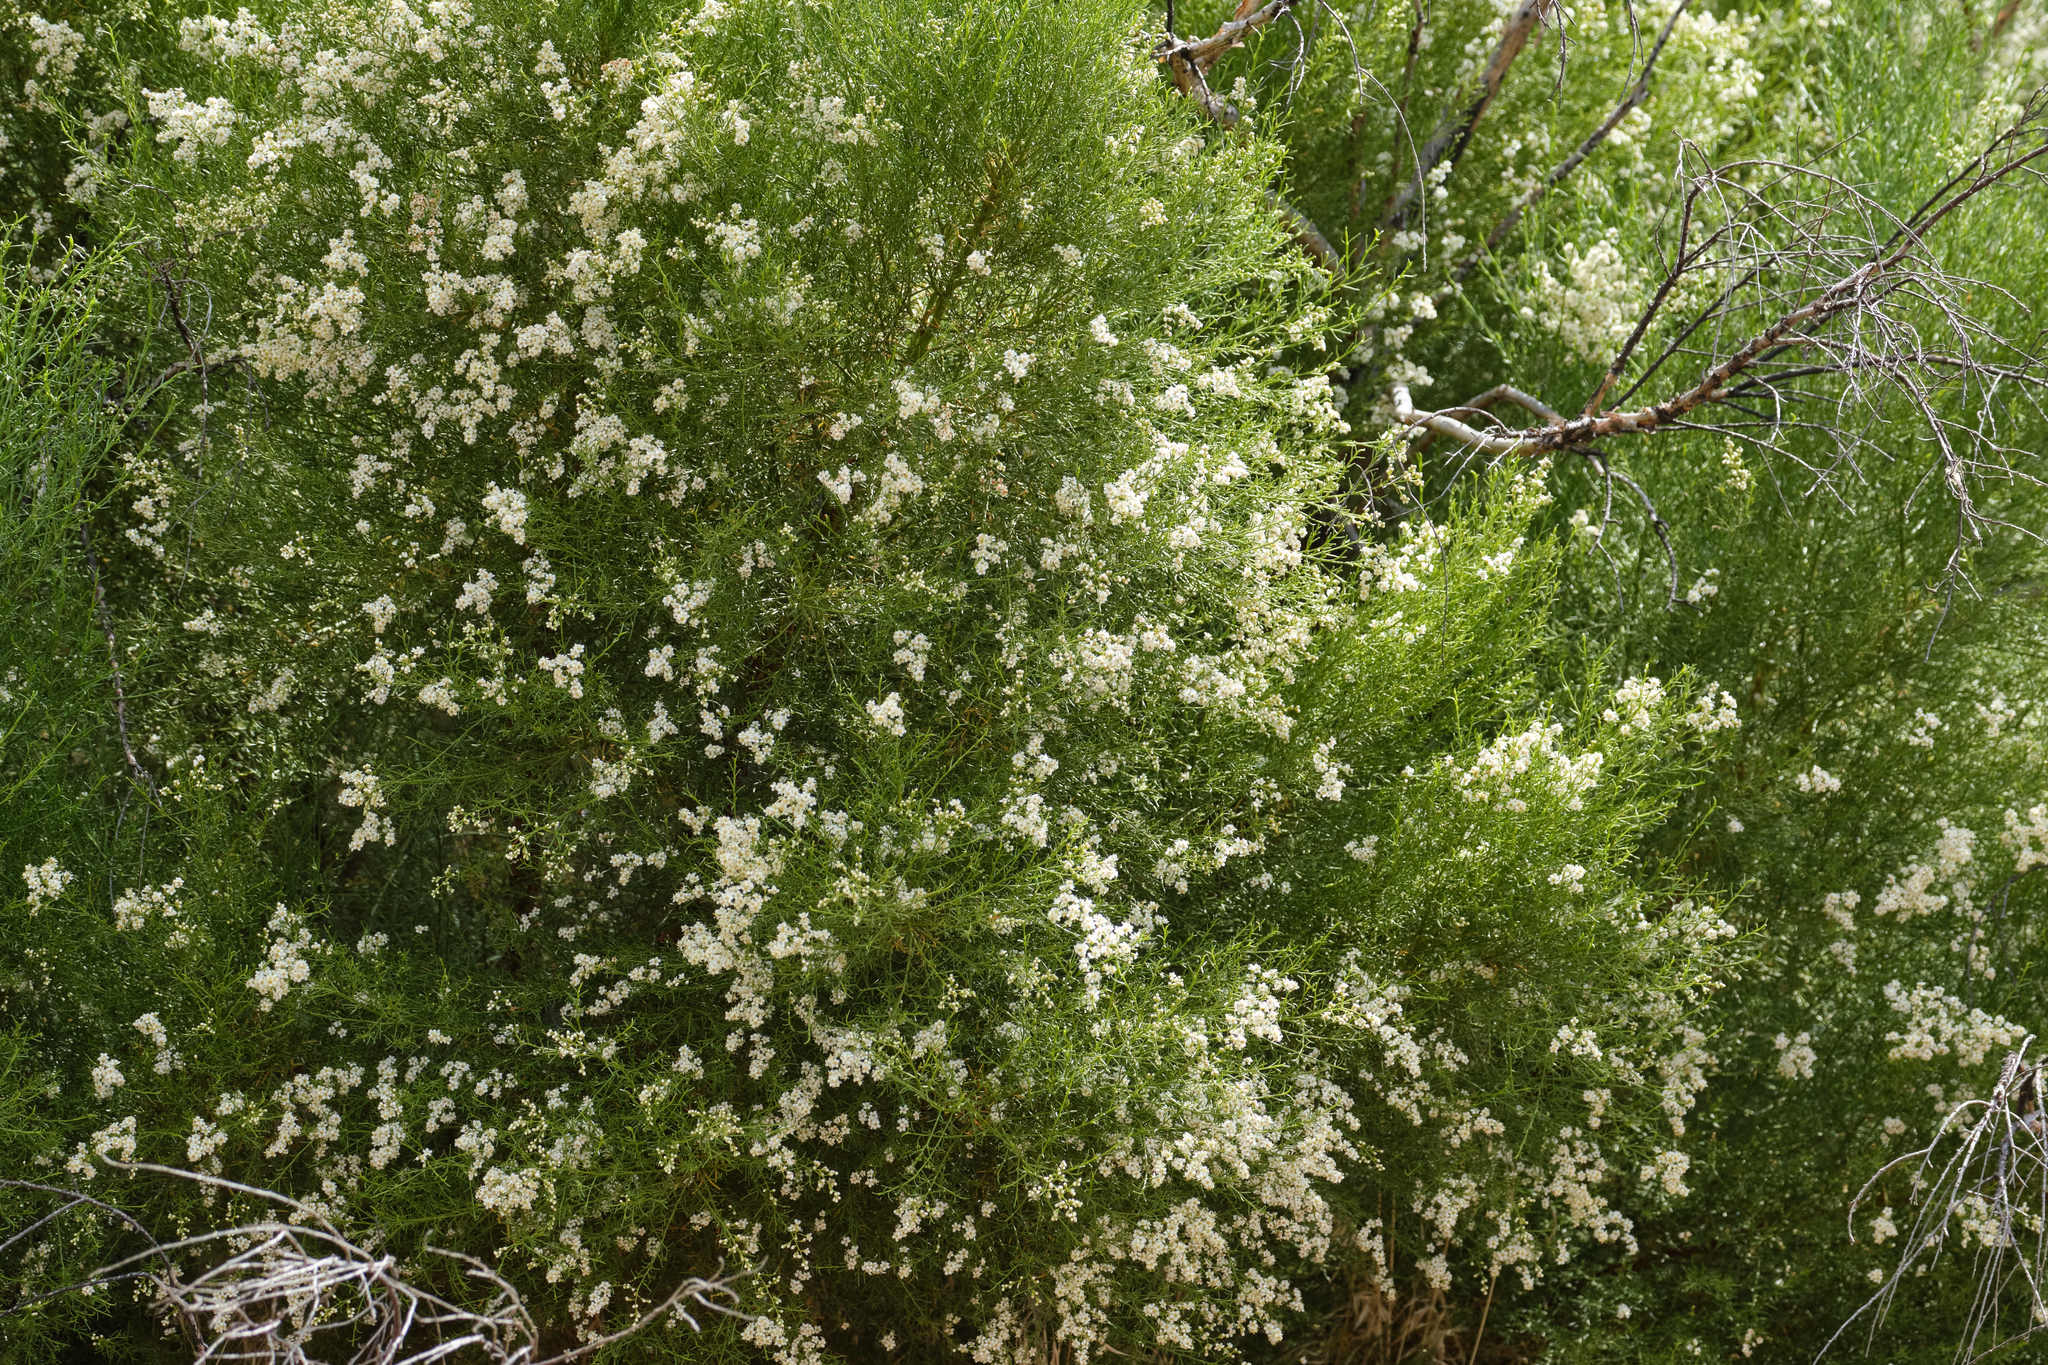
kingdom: Plantae
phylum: Tracheophyta
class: Magnoliopsida
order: Rosales
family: Rosaceae
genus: Adenostoma
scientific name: Adenostoma sparsifolium
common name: Red shank
